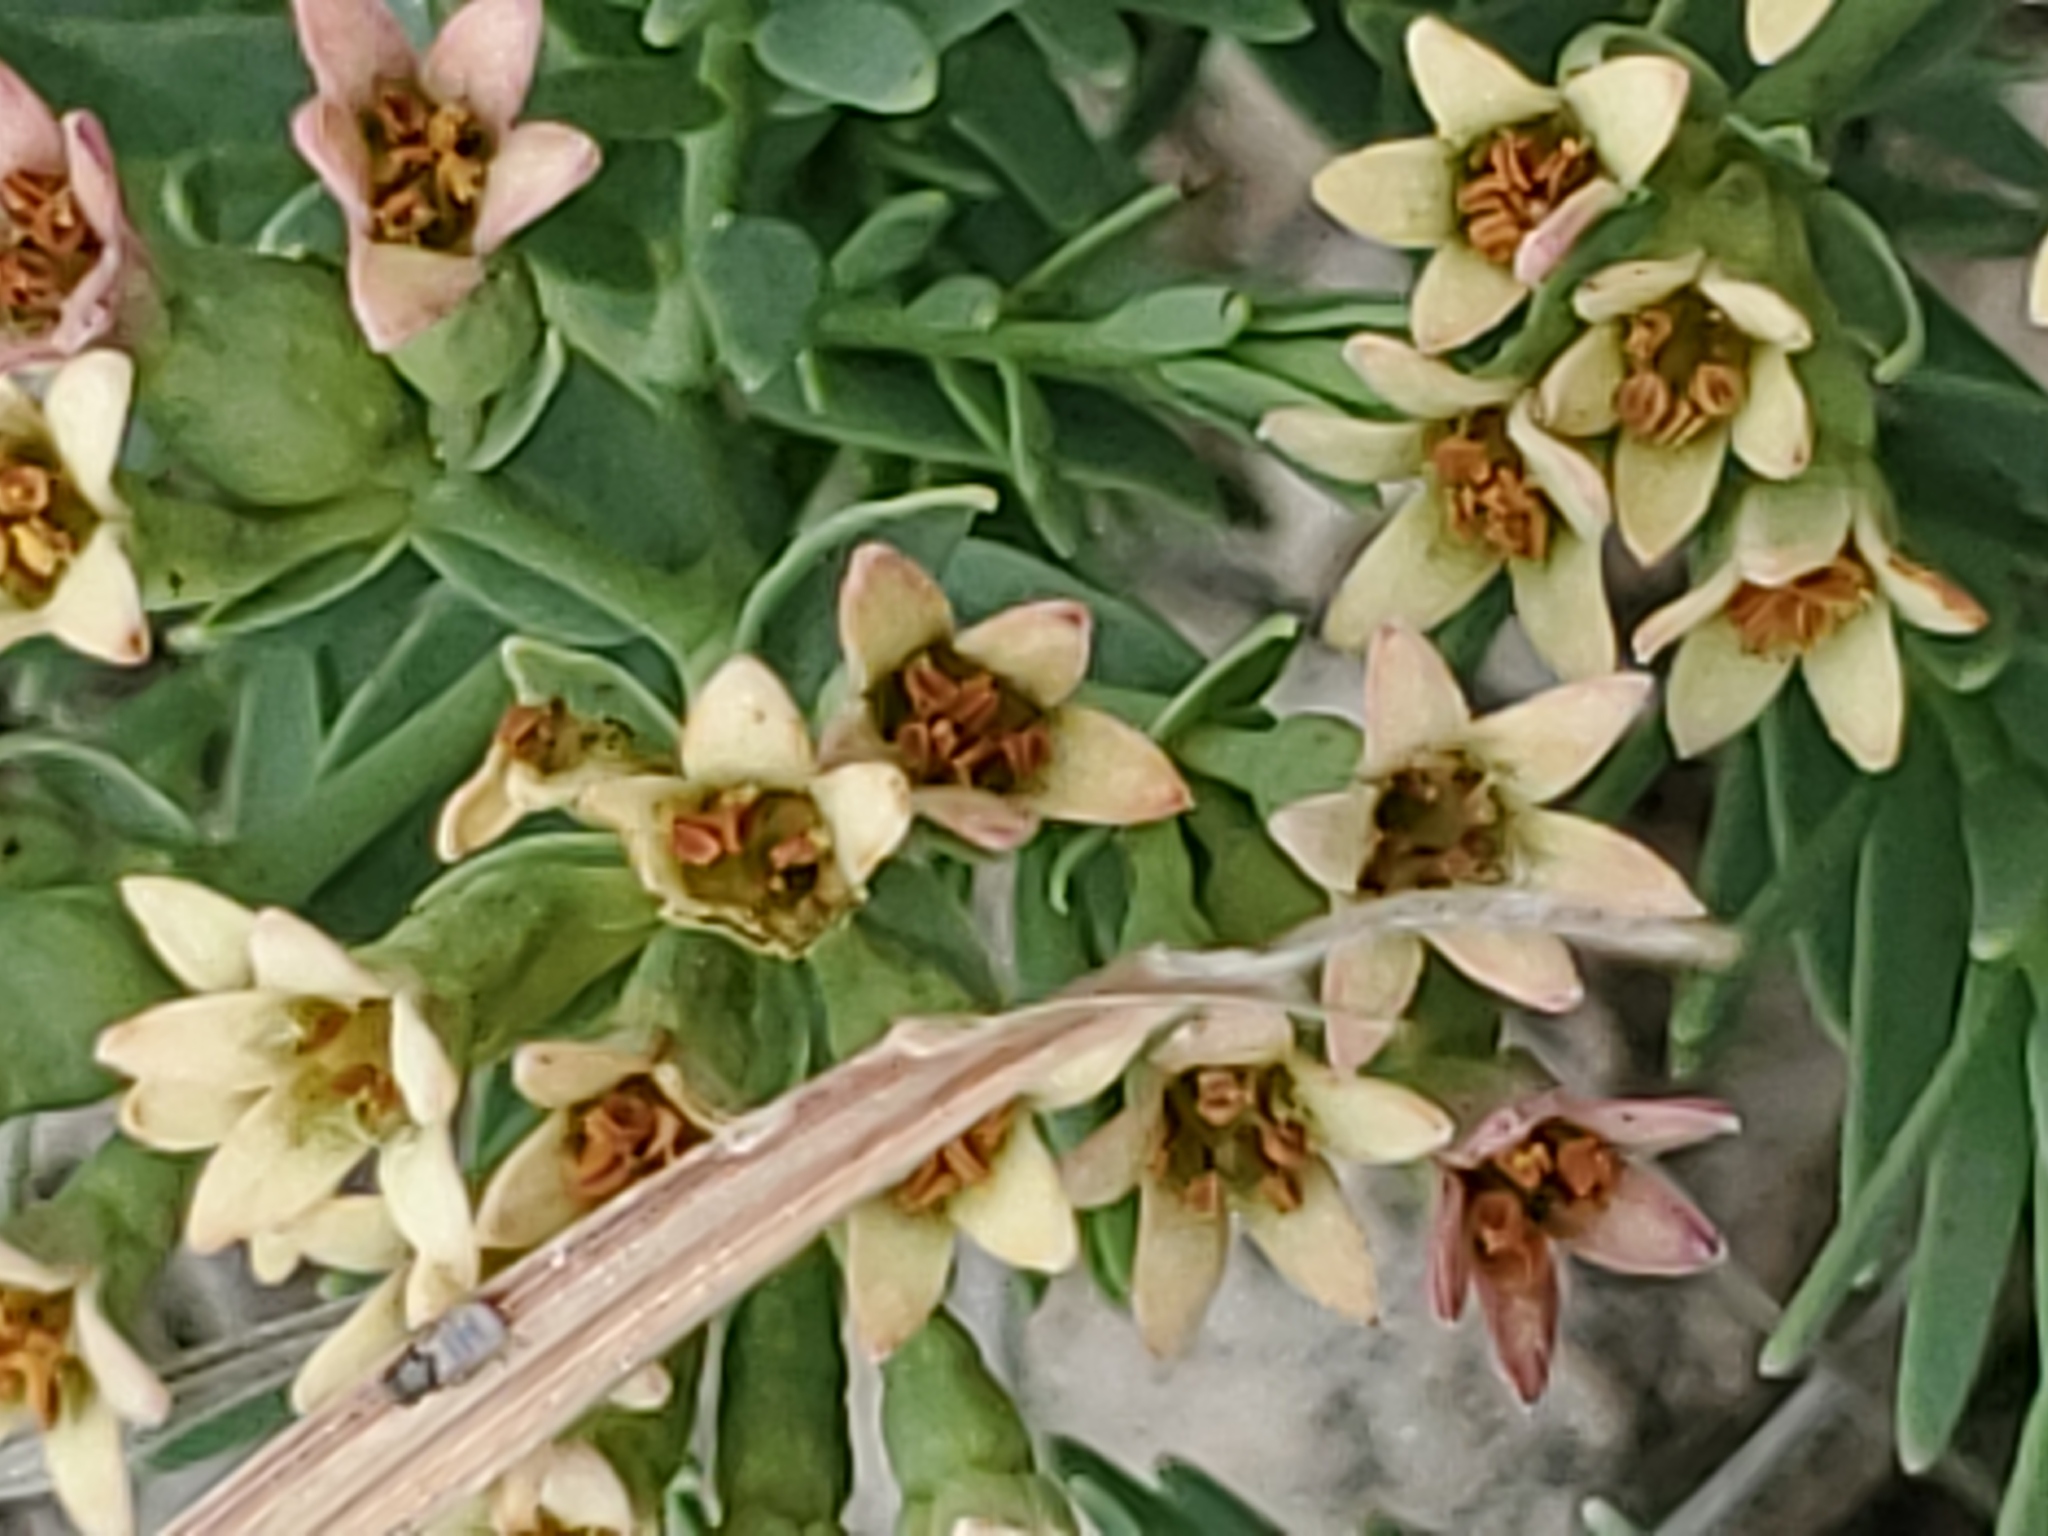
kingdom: Plantae
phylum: Tracheophyta
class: Magnoliopsida
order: Santalales
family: Comandraceae
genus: Comandra
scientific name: Comandra umbellata
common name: Bastard toadflax
